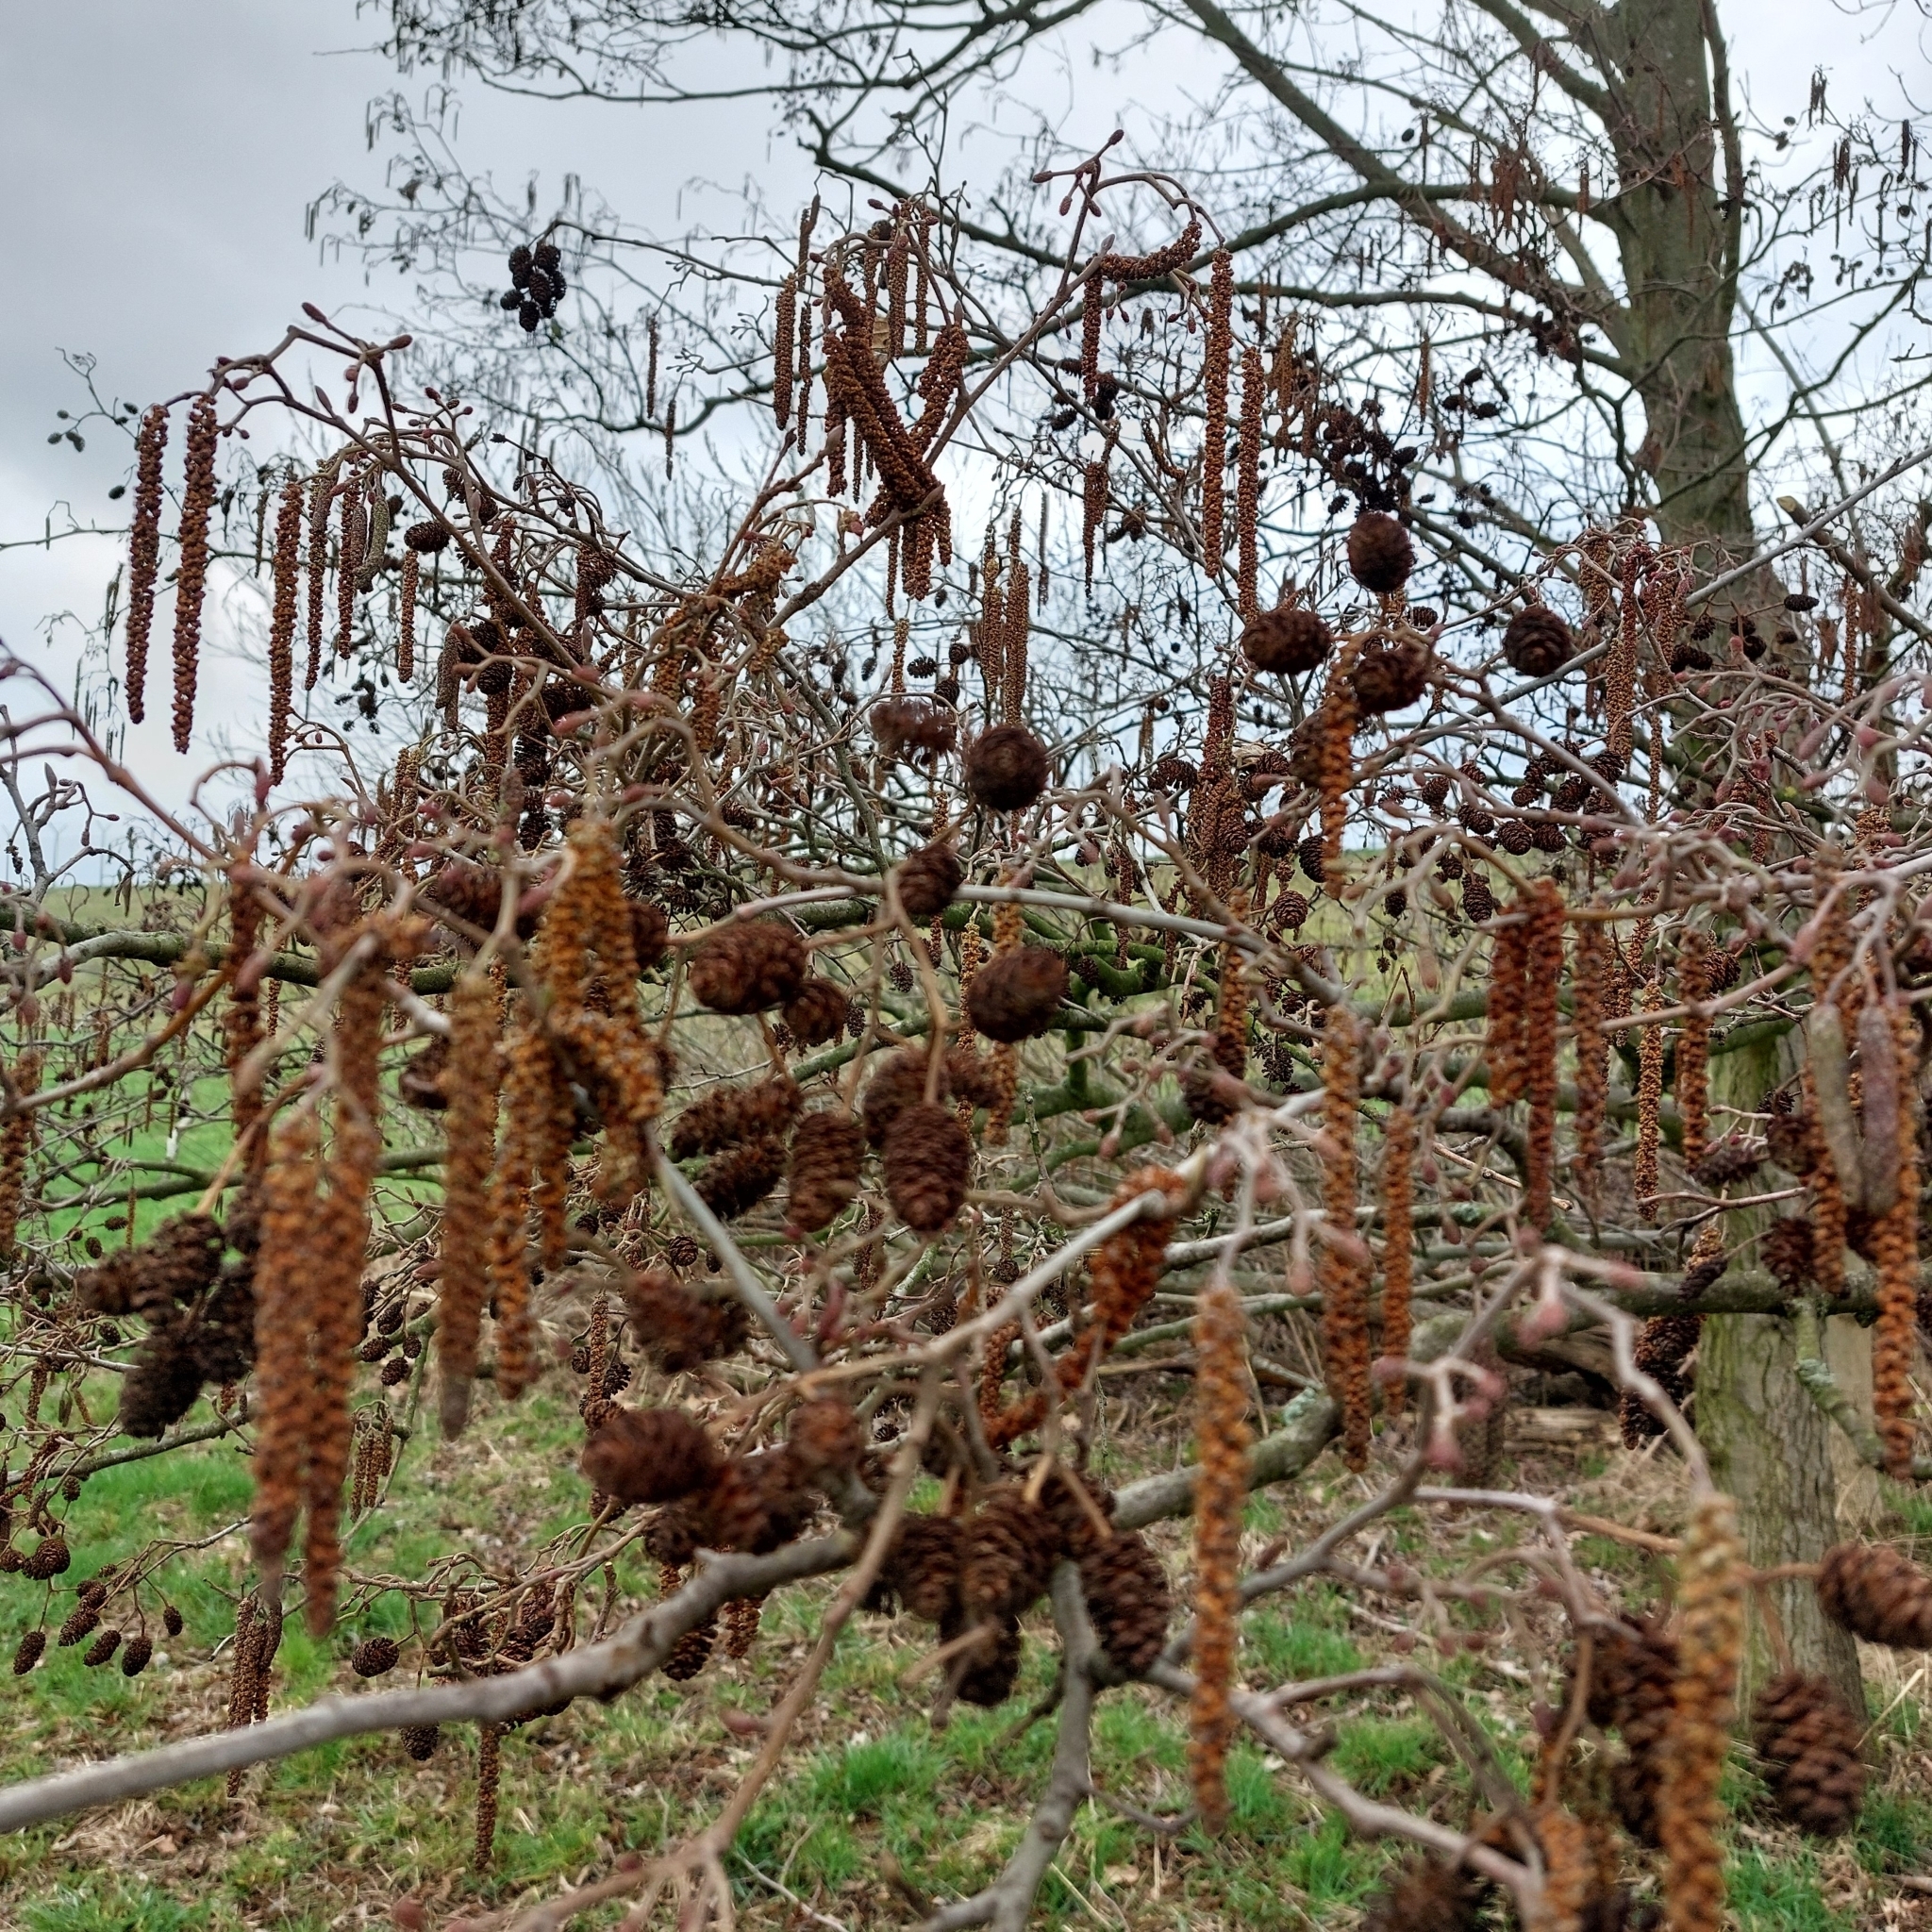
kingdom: Plantae
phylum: Tracheophyta
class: Magnoliopsida
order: Fagales
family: Betulaceae
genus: Alnus
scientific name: Alnus glutinosa
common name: Black alder
